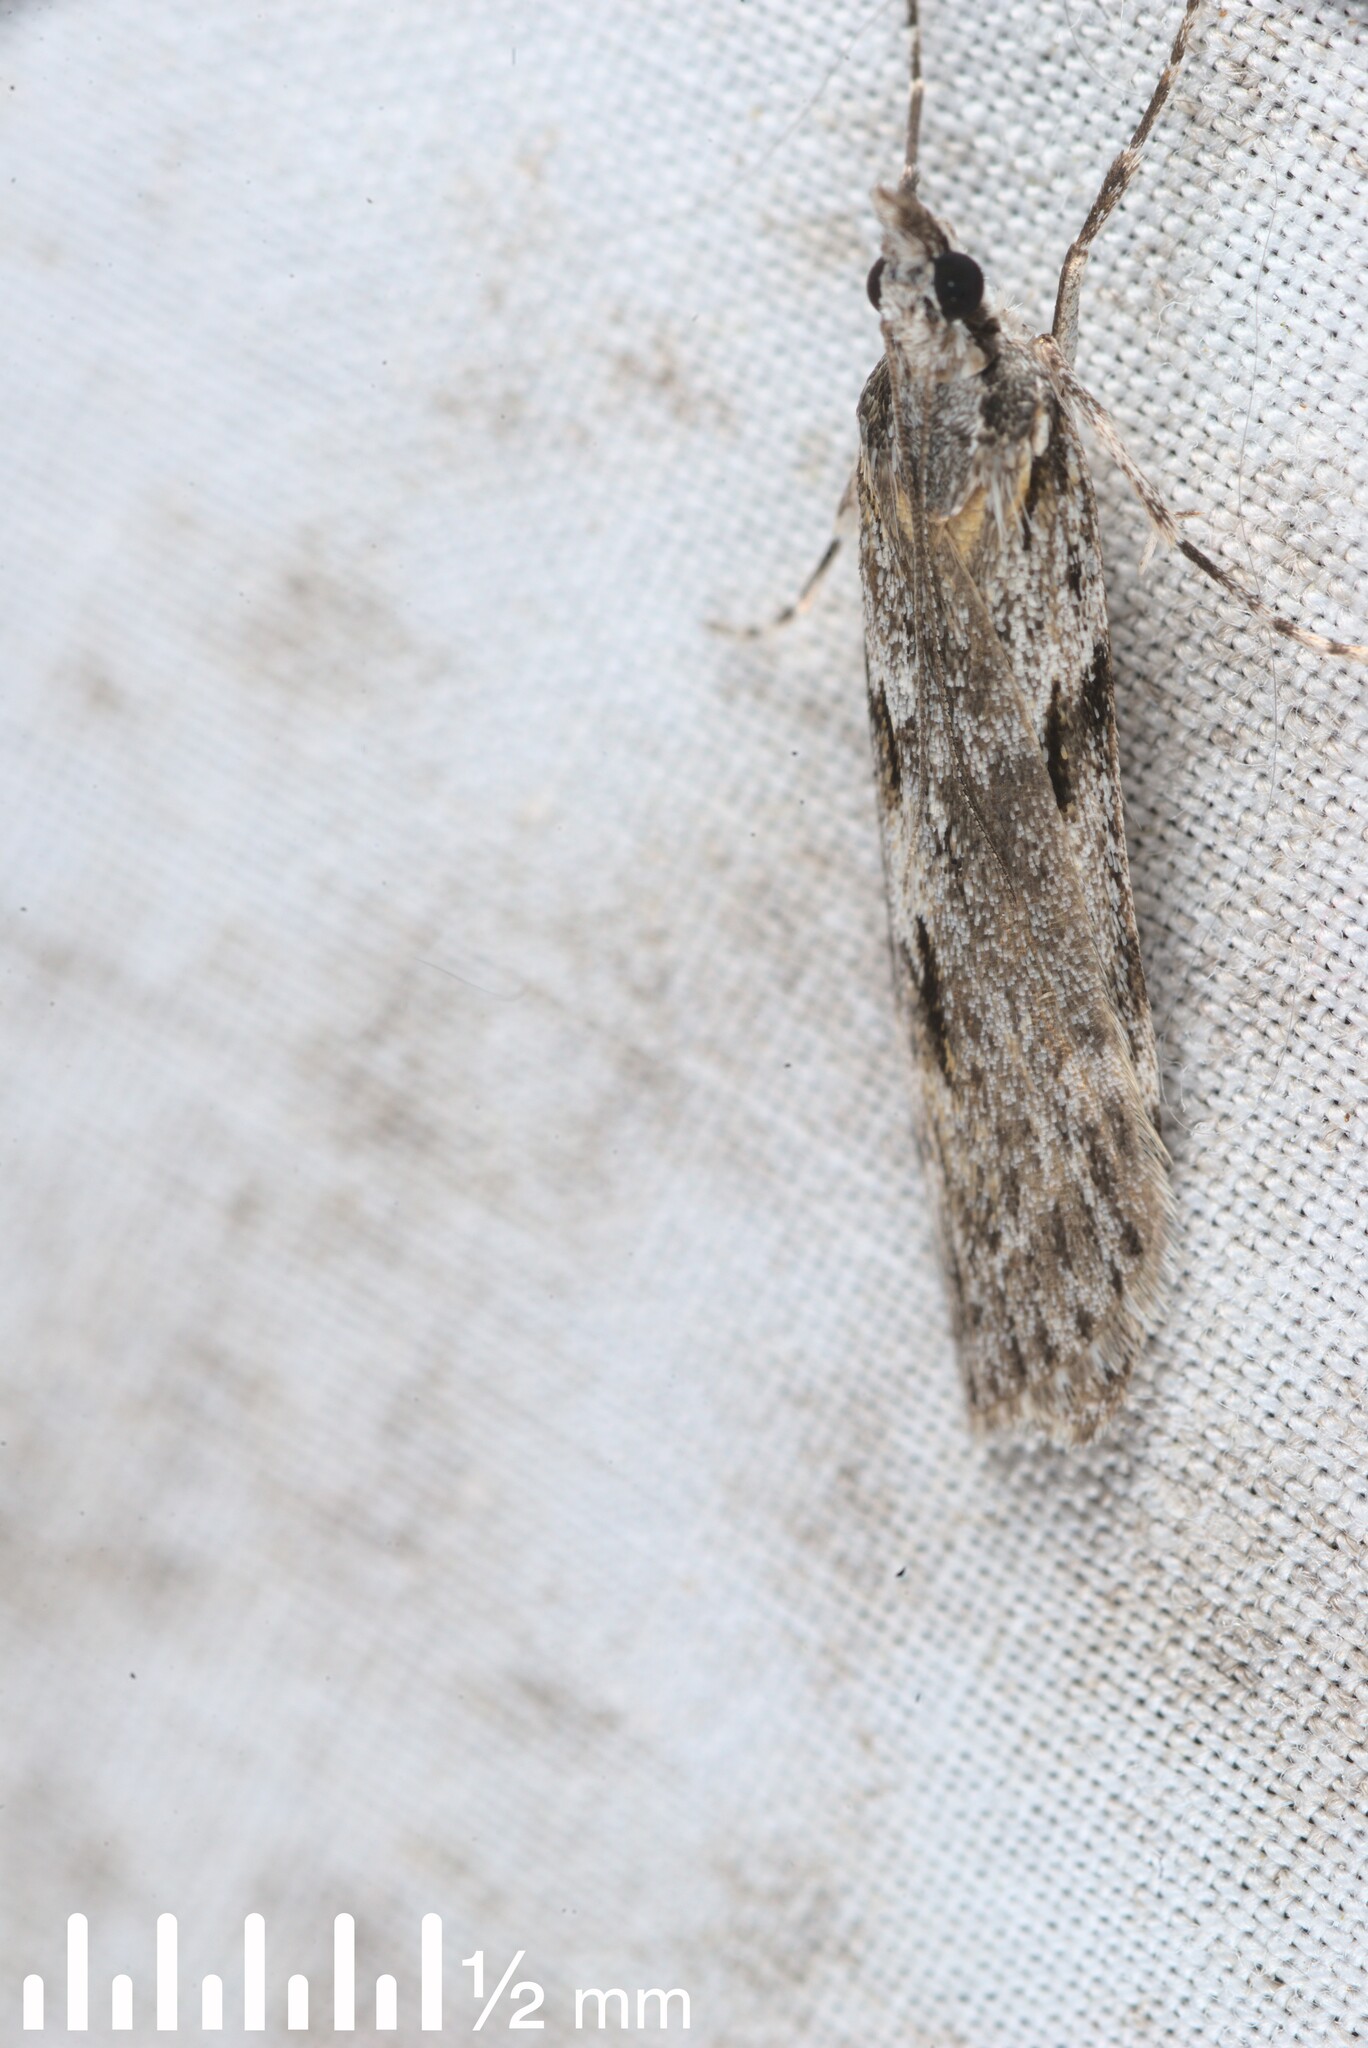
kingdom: Animalia
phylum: Arthropoda
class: Insecta
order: Lepidoptera
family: Crambidae
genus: Scoparia
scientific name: Scoparia halopis
